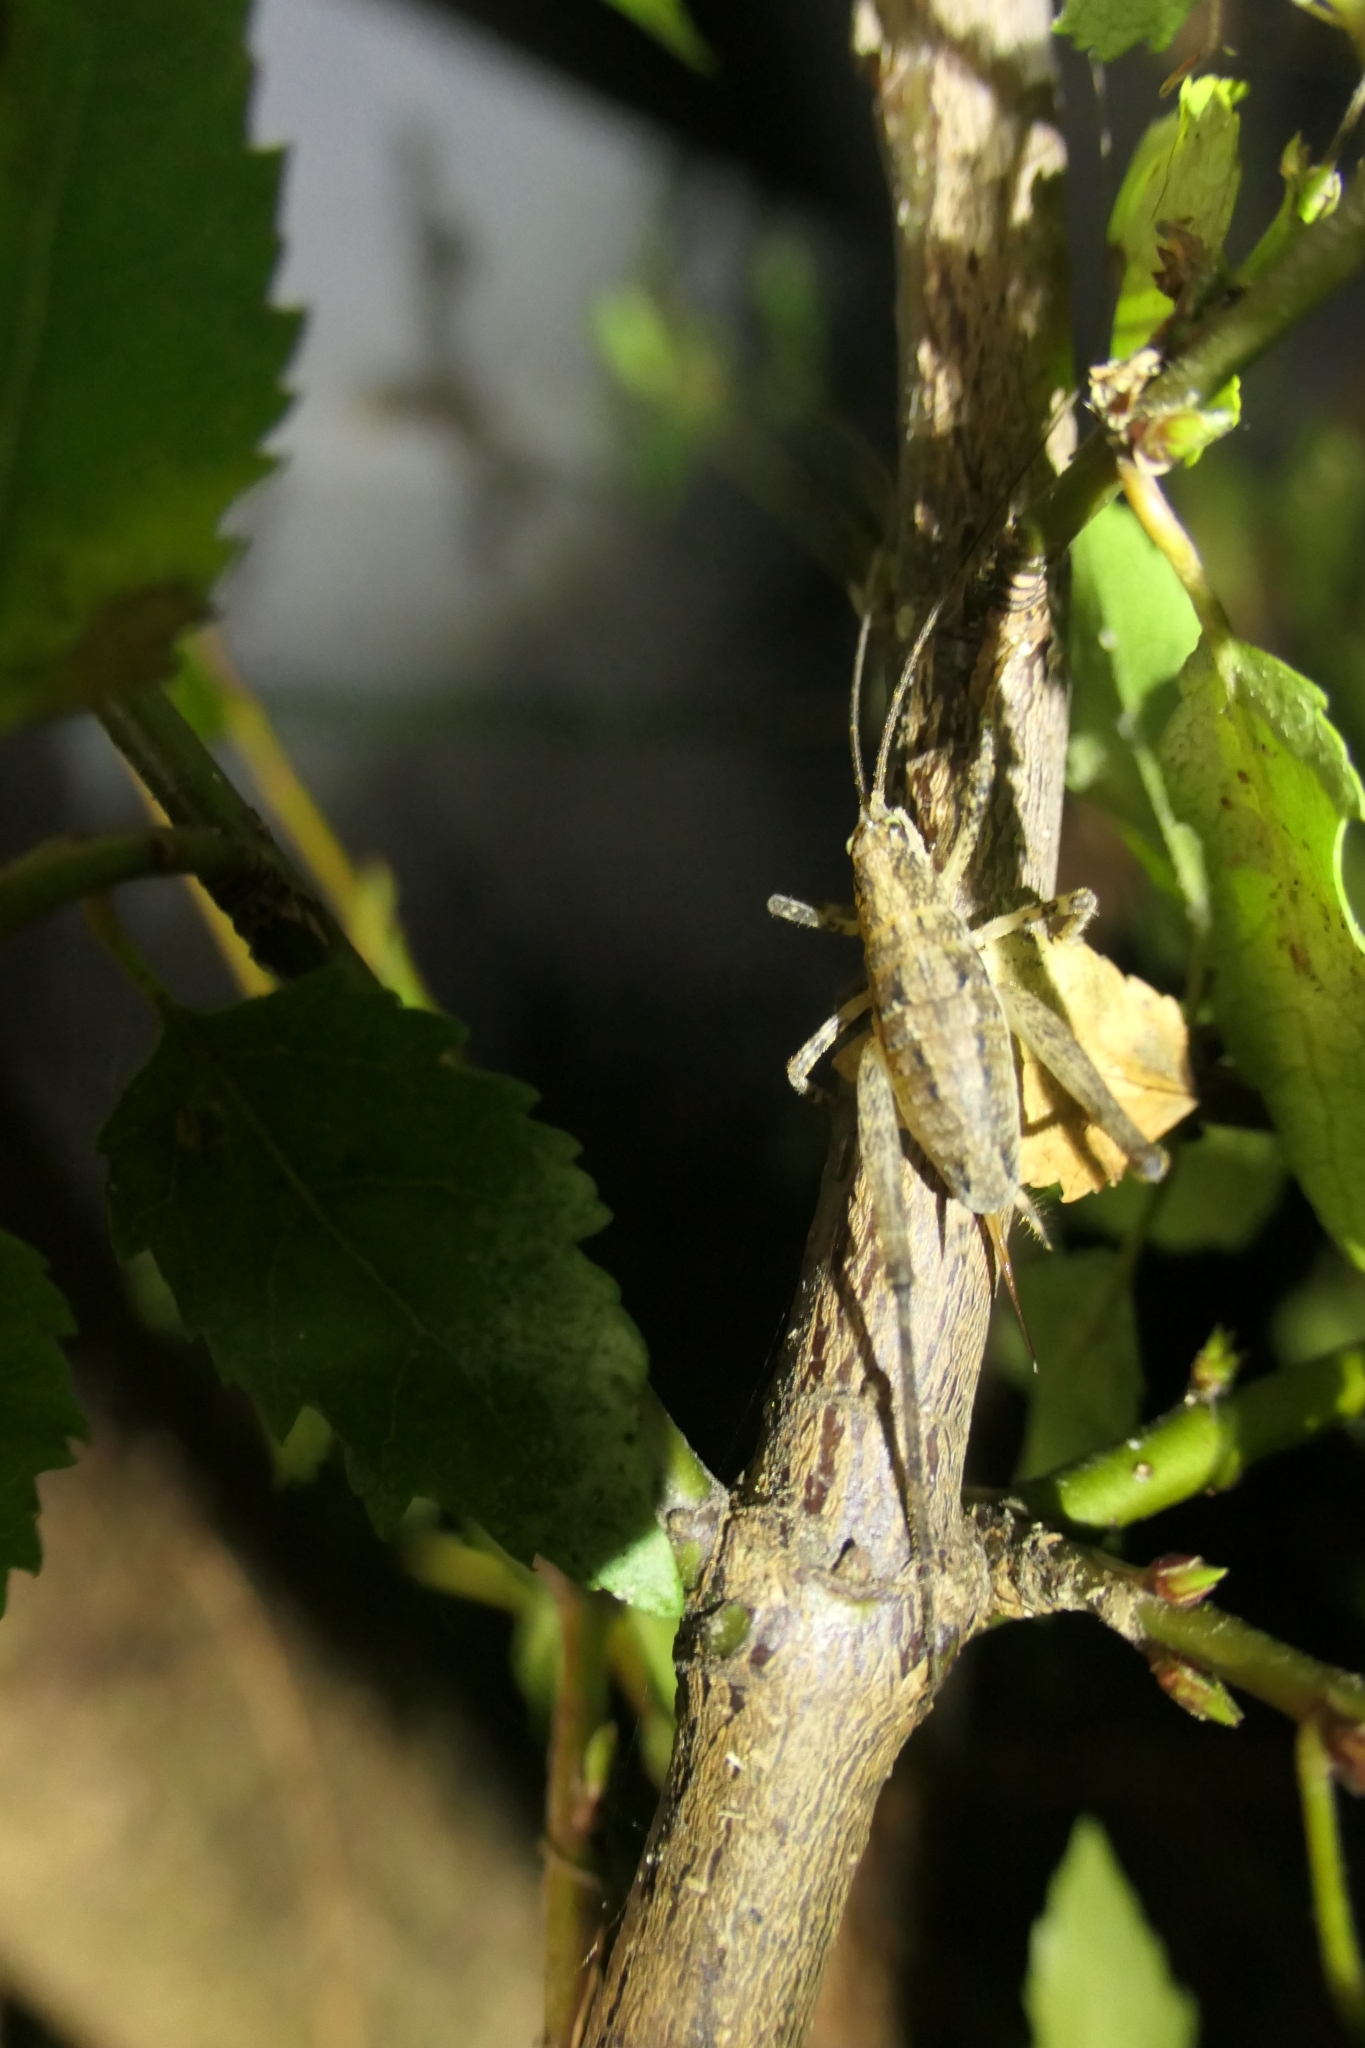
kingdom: Animalia
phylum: Arthropoda
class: Insecta
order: Orthoptera
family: Rhaphidophoridae
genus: Isoplectron
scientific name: Isoplectron armatum
